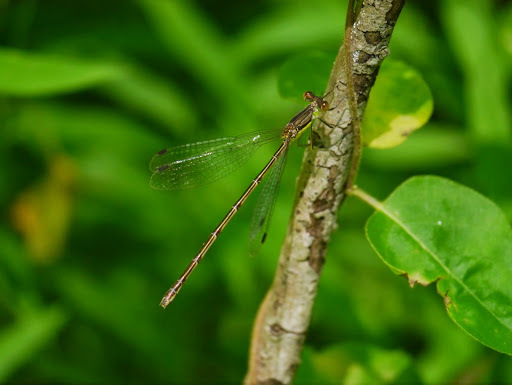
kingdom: Animalia
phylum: Arthropoda
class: Insecta
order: Odonata
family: Lestidae
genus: Lestes
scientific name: Lestes rectangularis
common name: Slender spreadwing
